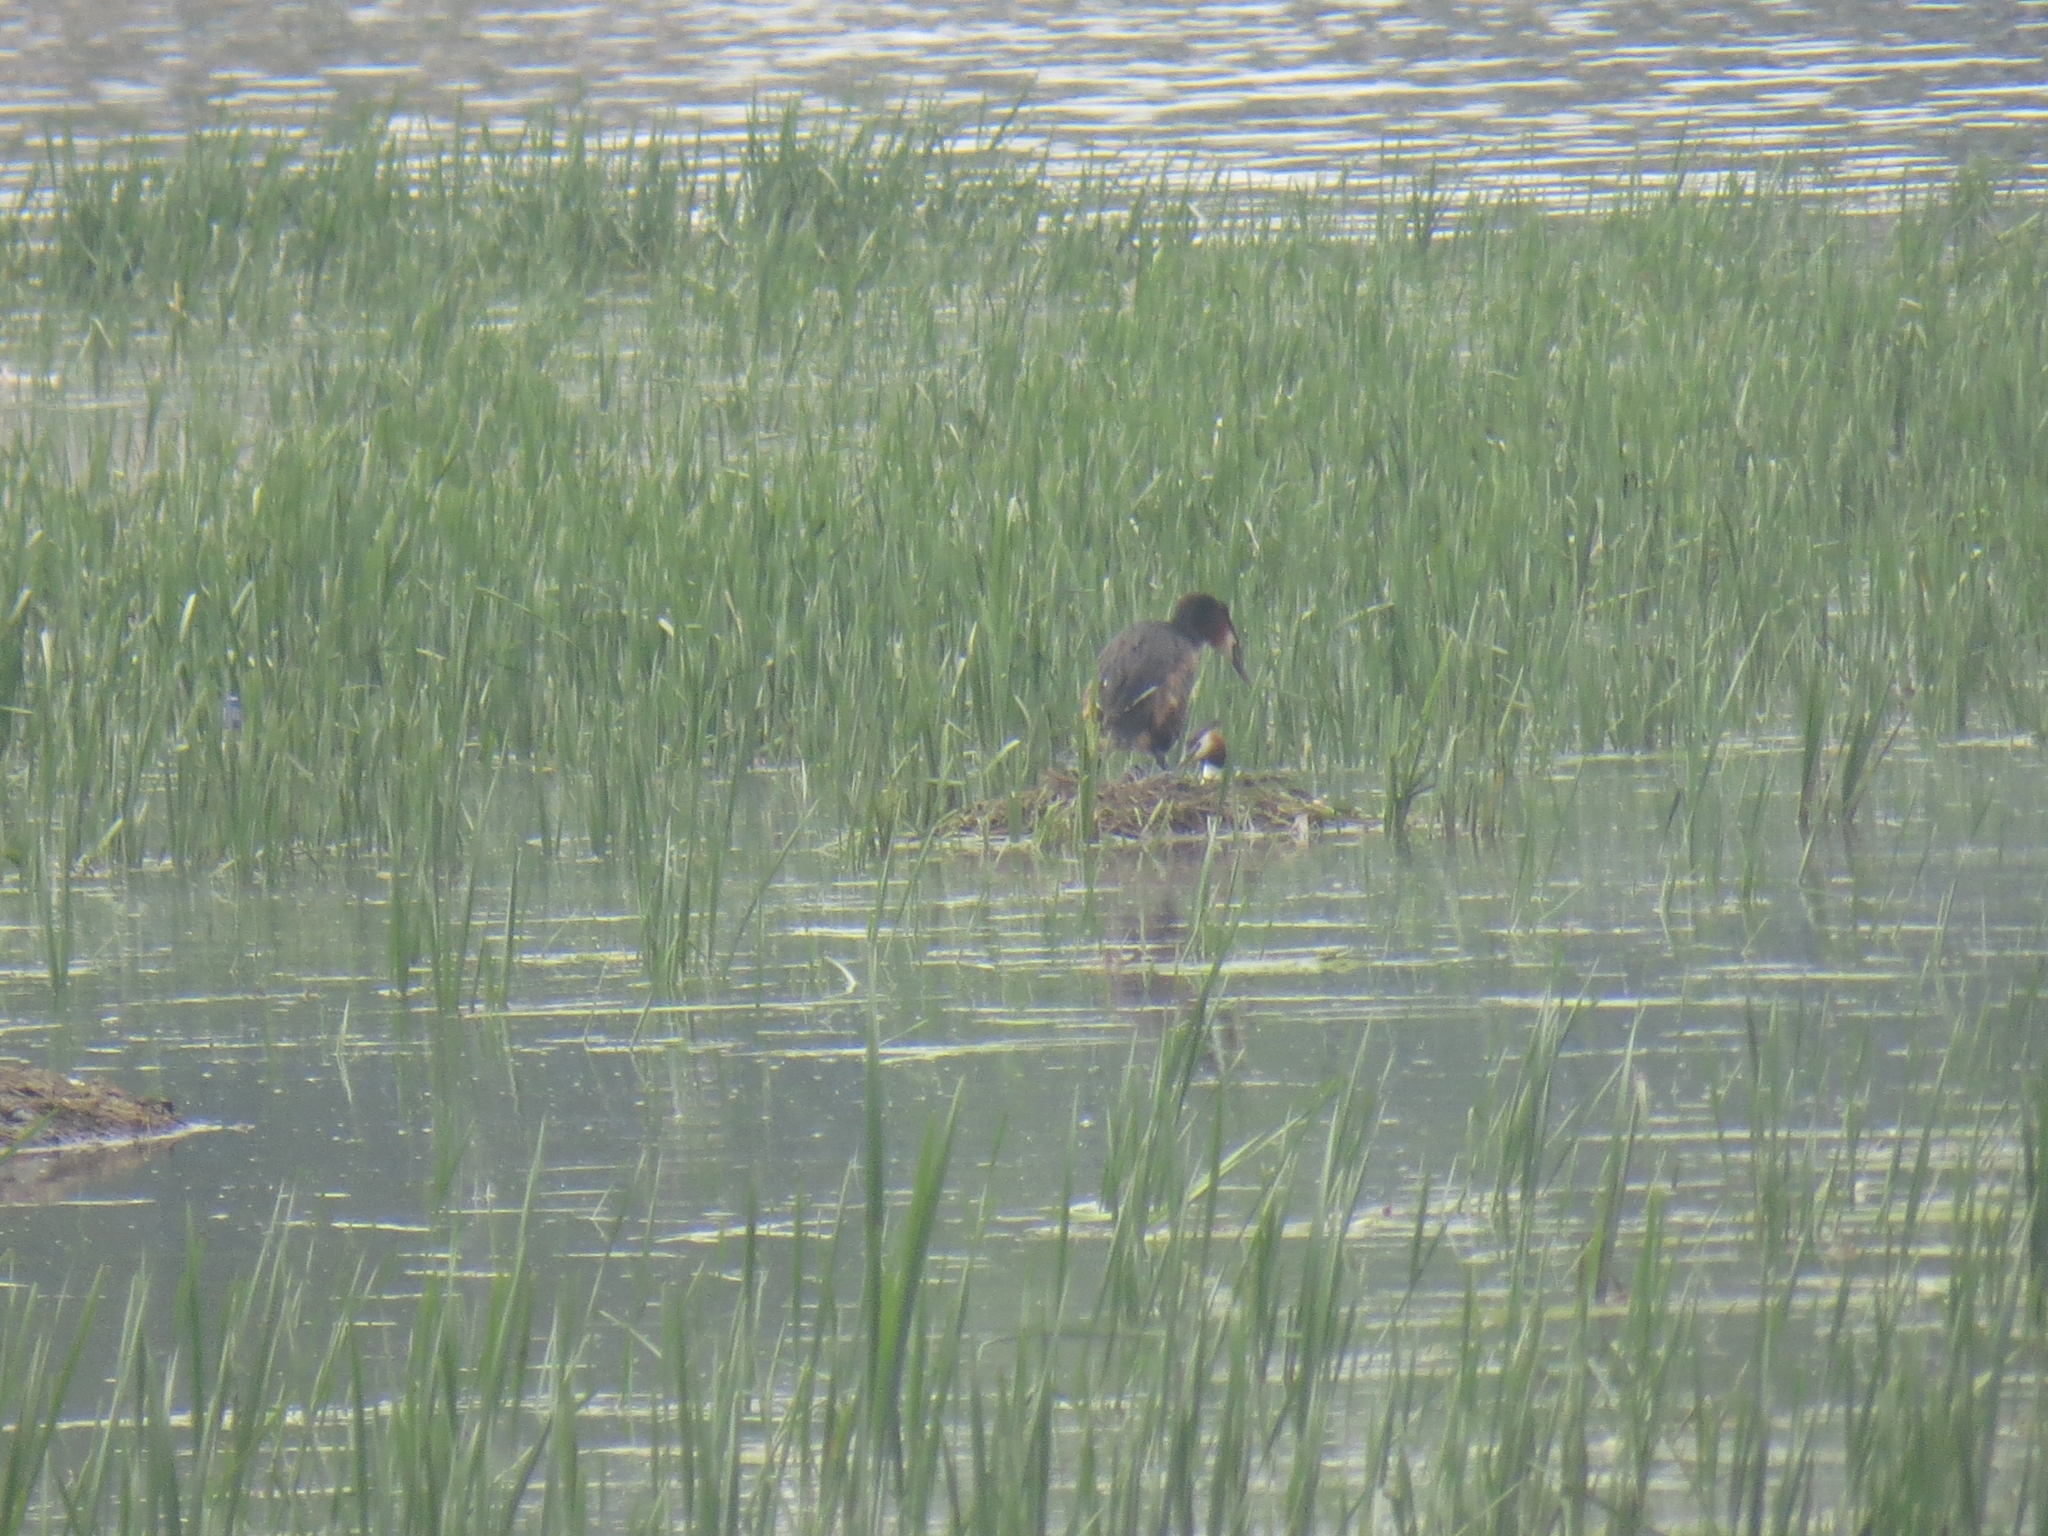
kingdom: Animalia
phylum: Chordata
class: Aves
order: Podicipediformes
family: Podicipedidae
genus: Podiceps
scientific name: Podiceps cristatus
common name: Great crested grebe
